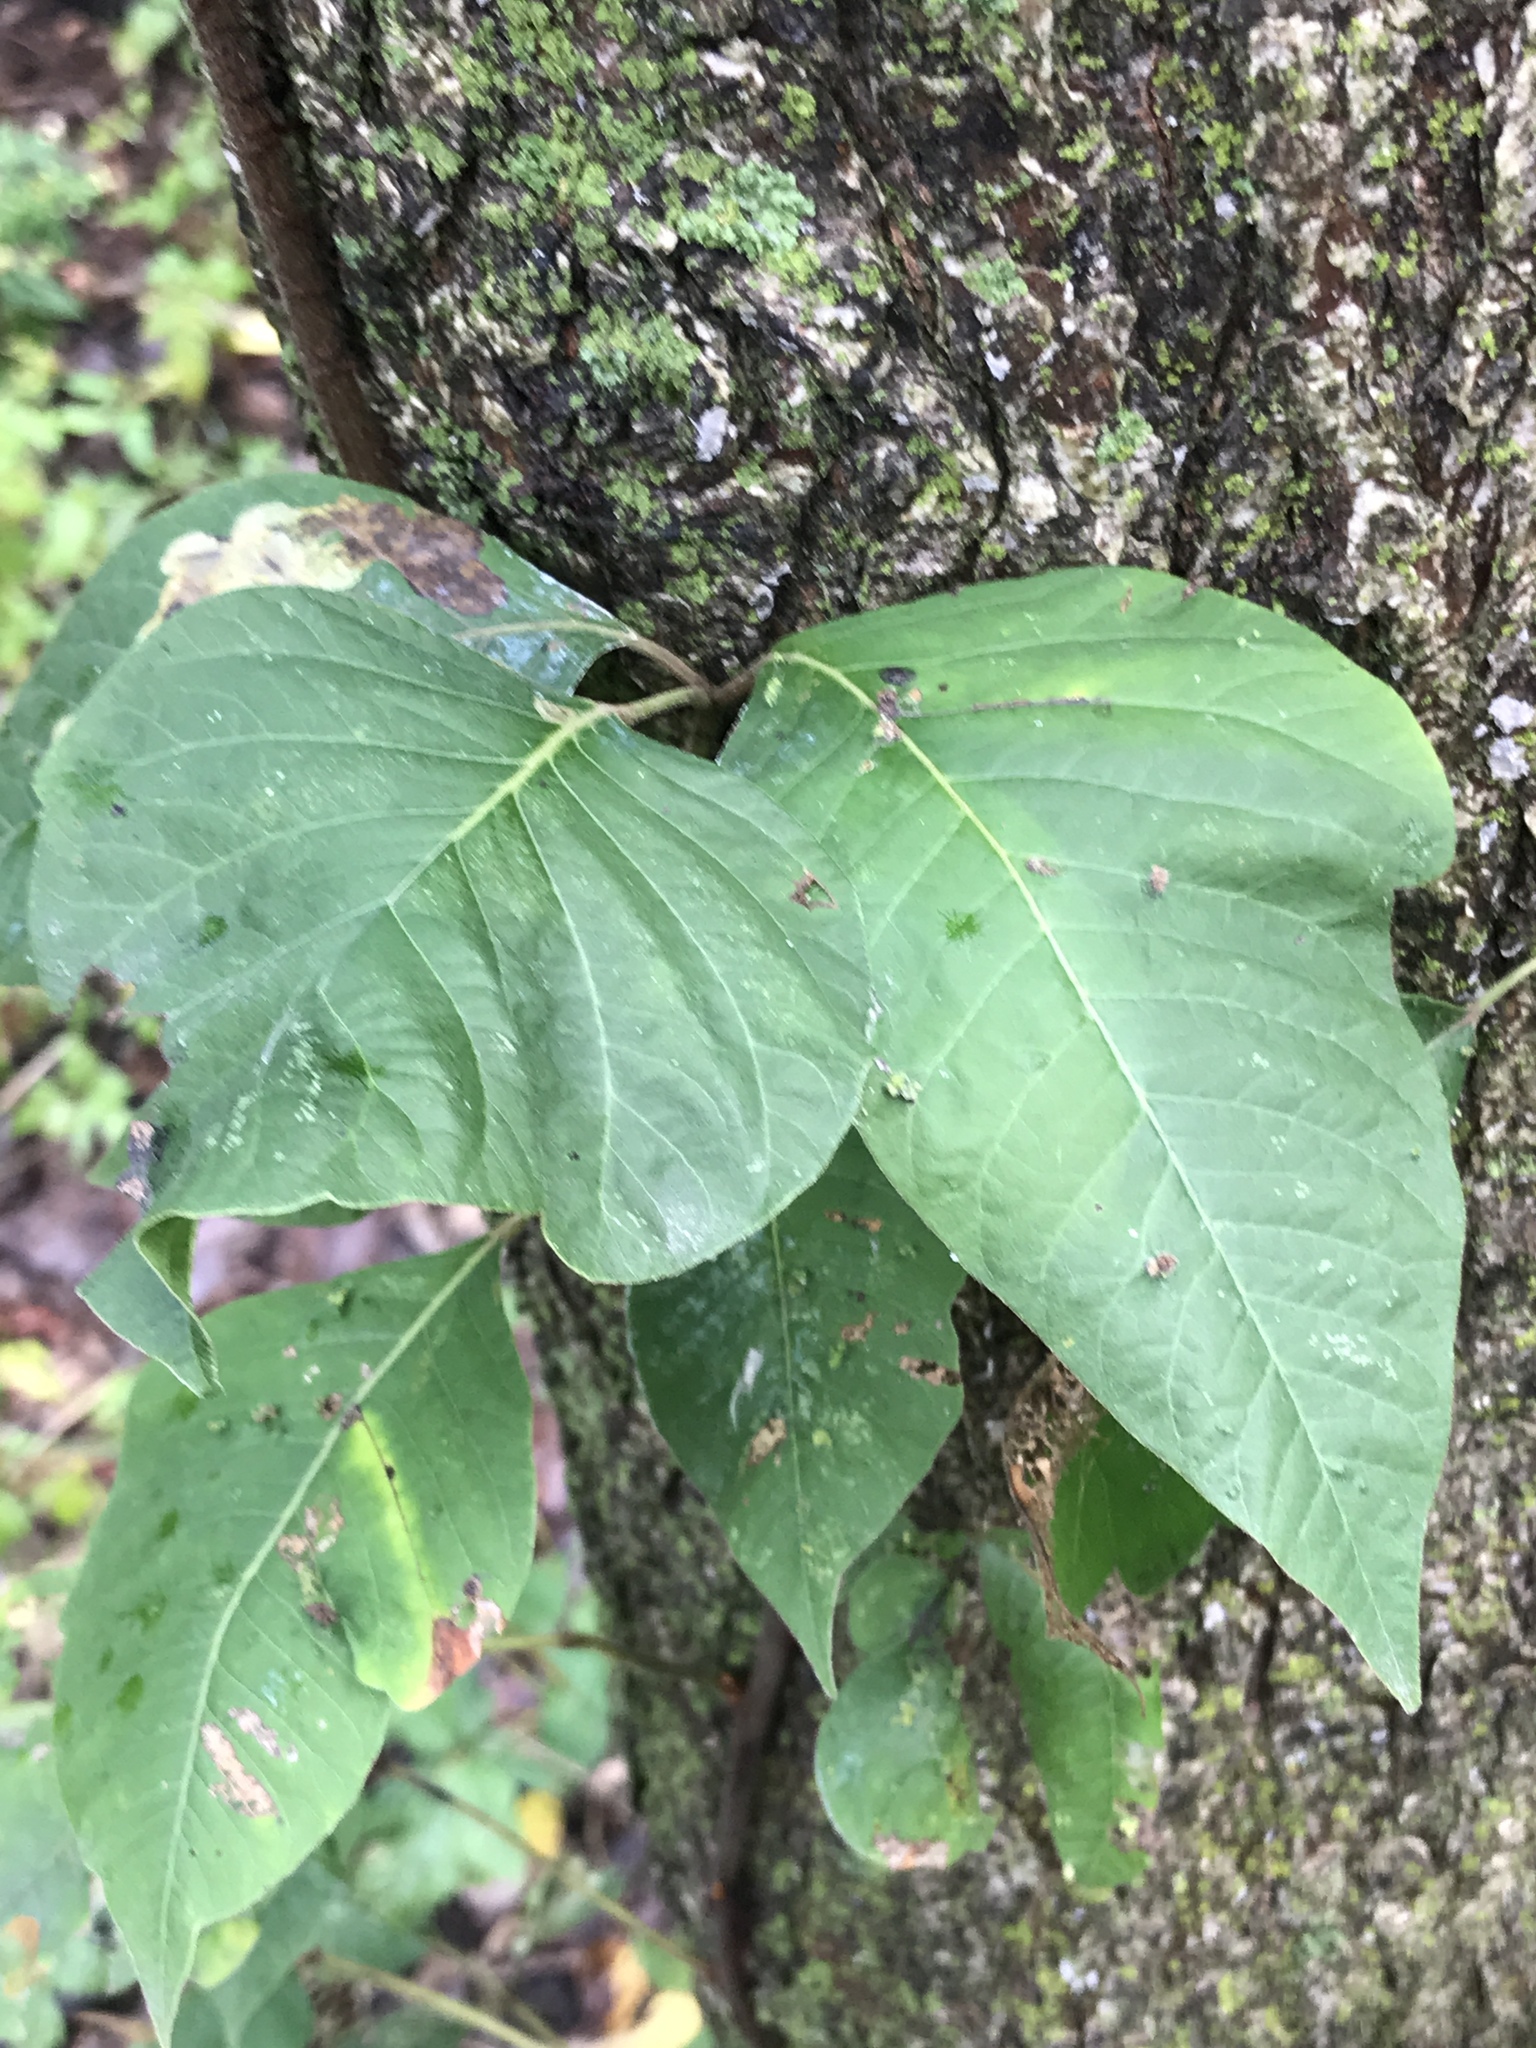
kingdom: Plantae
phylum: Tracheophyta
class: Magnoliopsida
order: Sapindales
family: Anacardiaceae
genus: Toxicodendron
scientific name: Toxicodendron radicans
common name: Poison ivy
